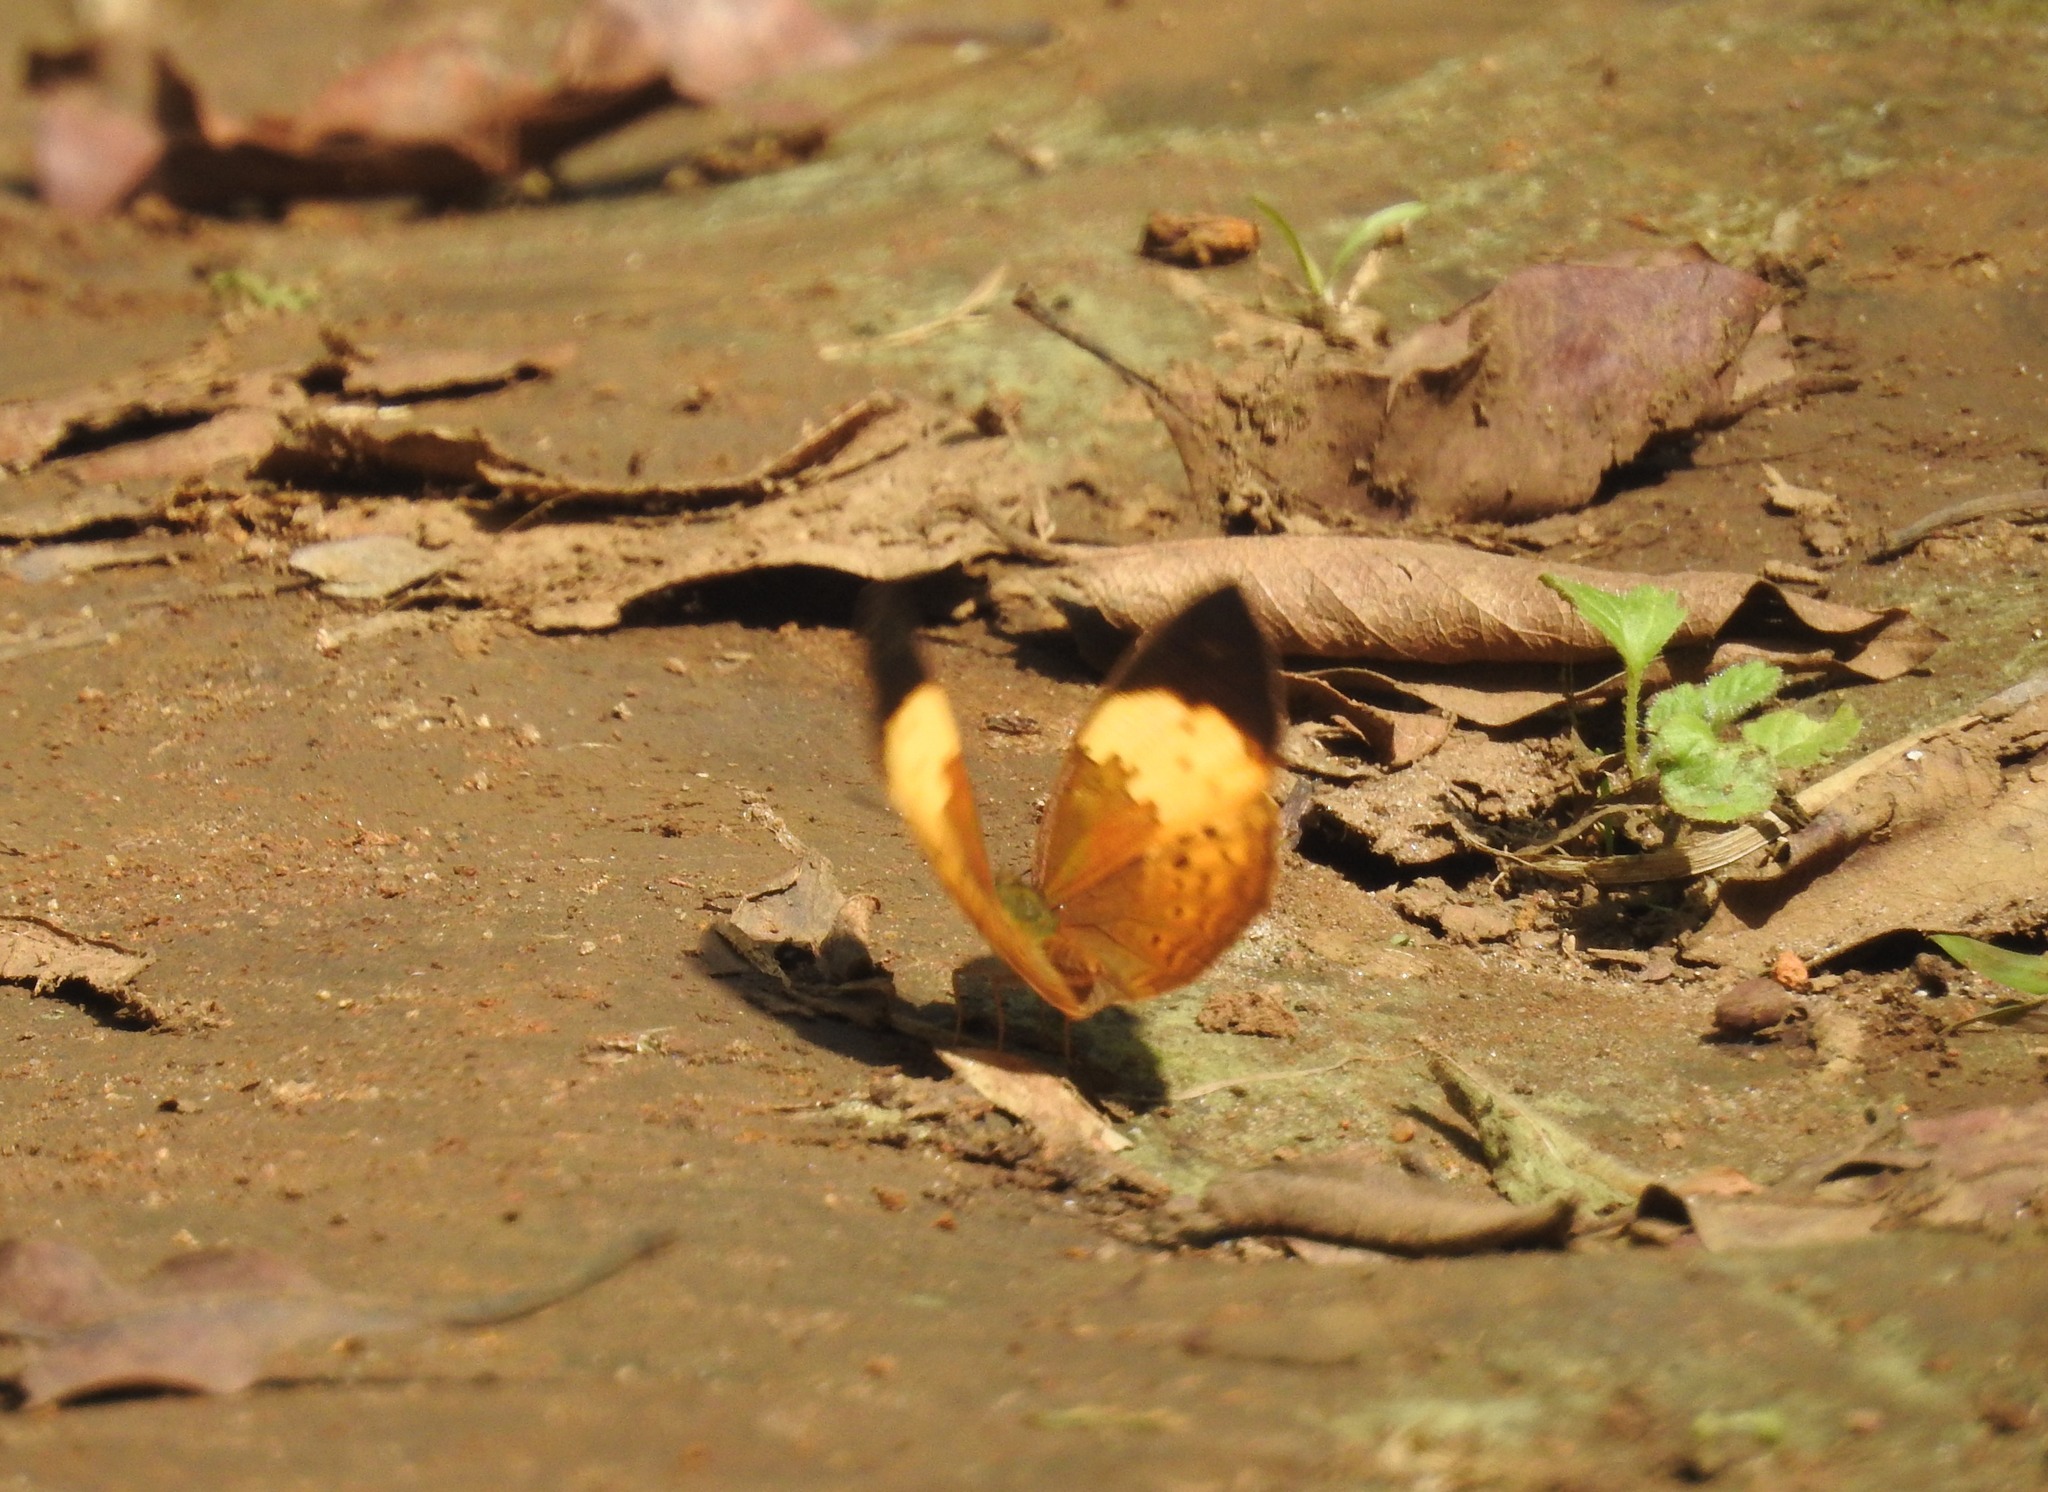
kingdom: Animalia
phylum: Arthropoda
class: Insecta
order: Lepidoptera
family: Nymphalidae
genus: Cupha
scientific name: Cupha erymanthis
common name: Rustic
